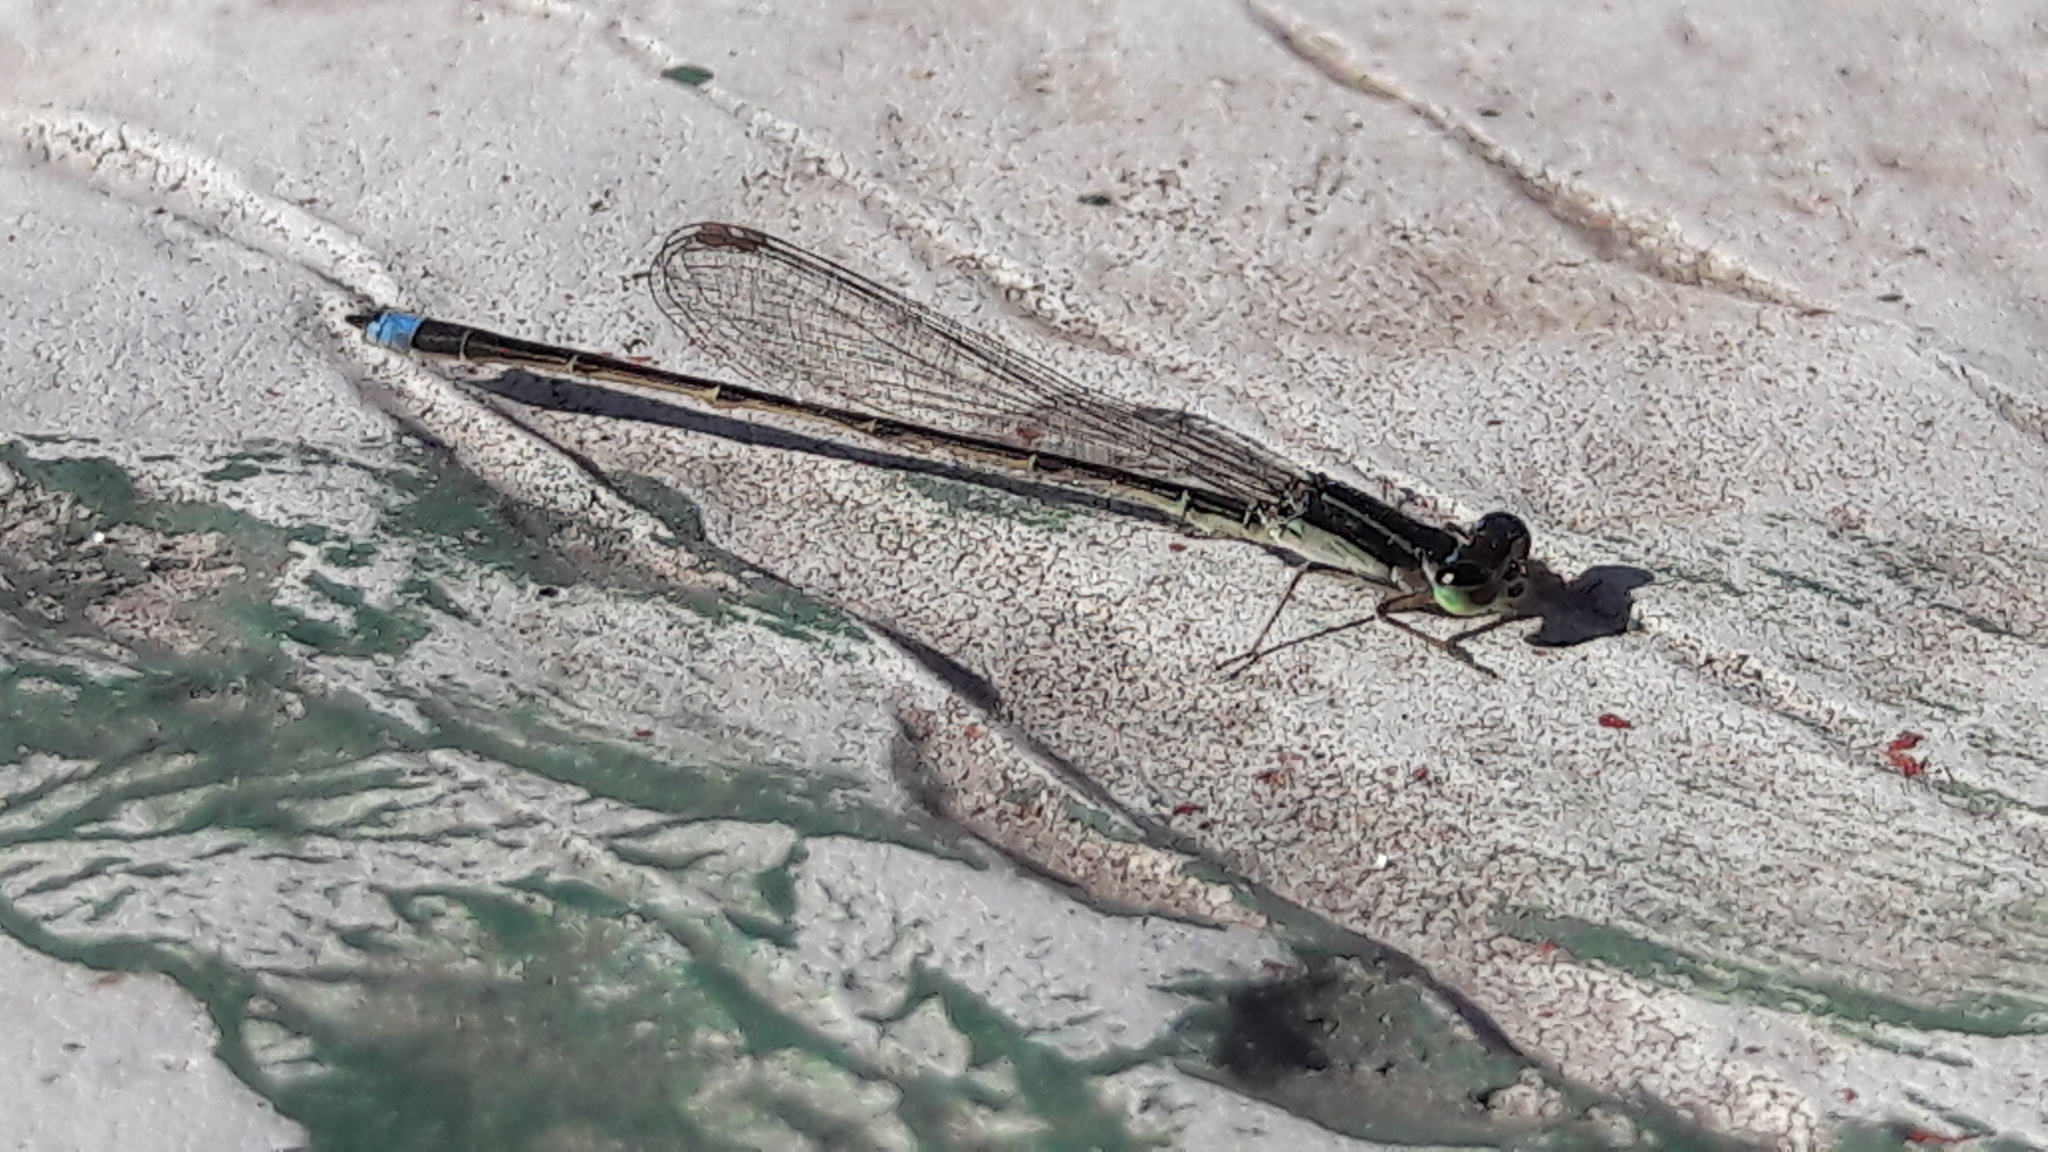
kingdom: Animalia
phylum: Arthropoda
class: Insecta
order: Odonata
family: Coenagrionidae
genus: Argentagrion
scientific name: Argentagrion ambiguum
